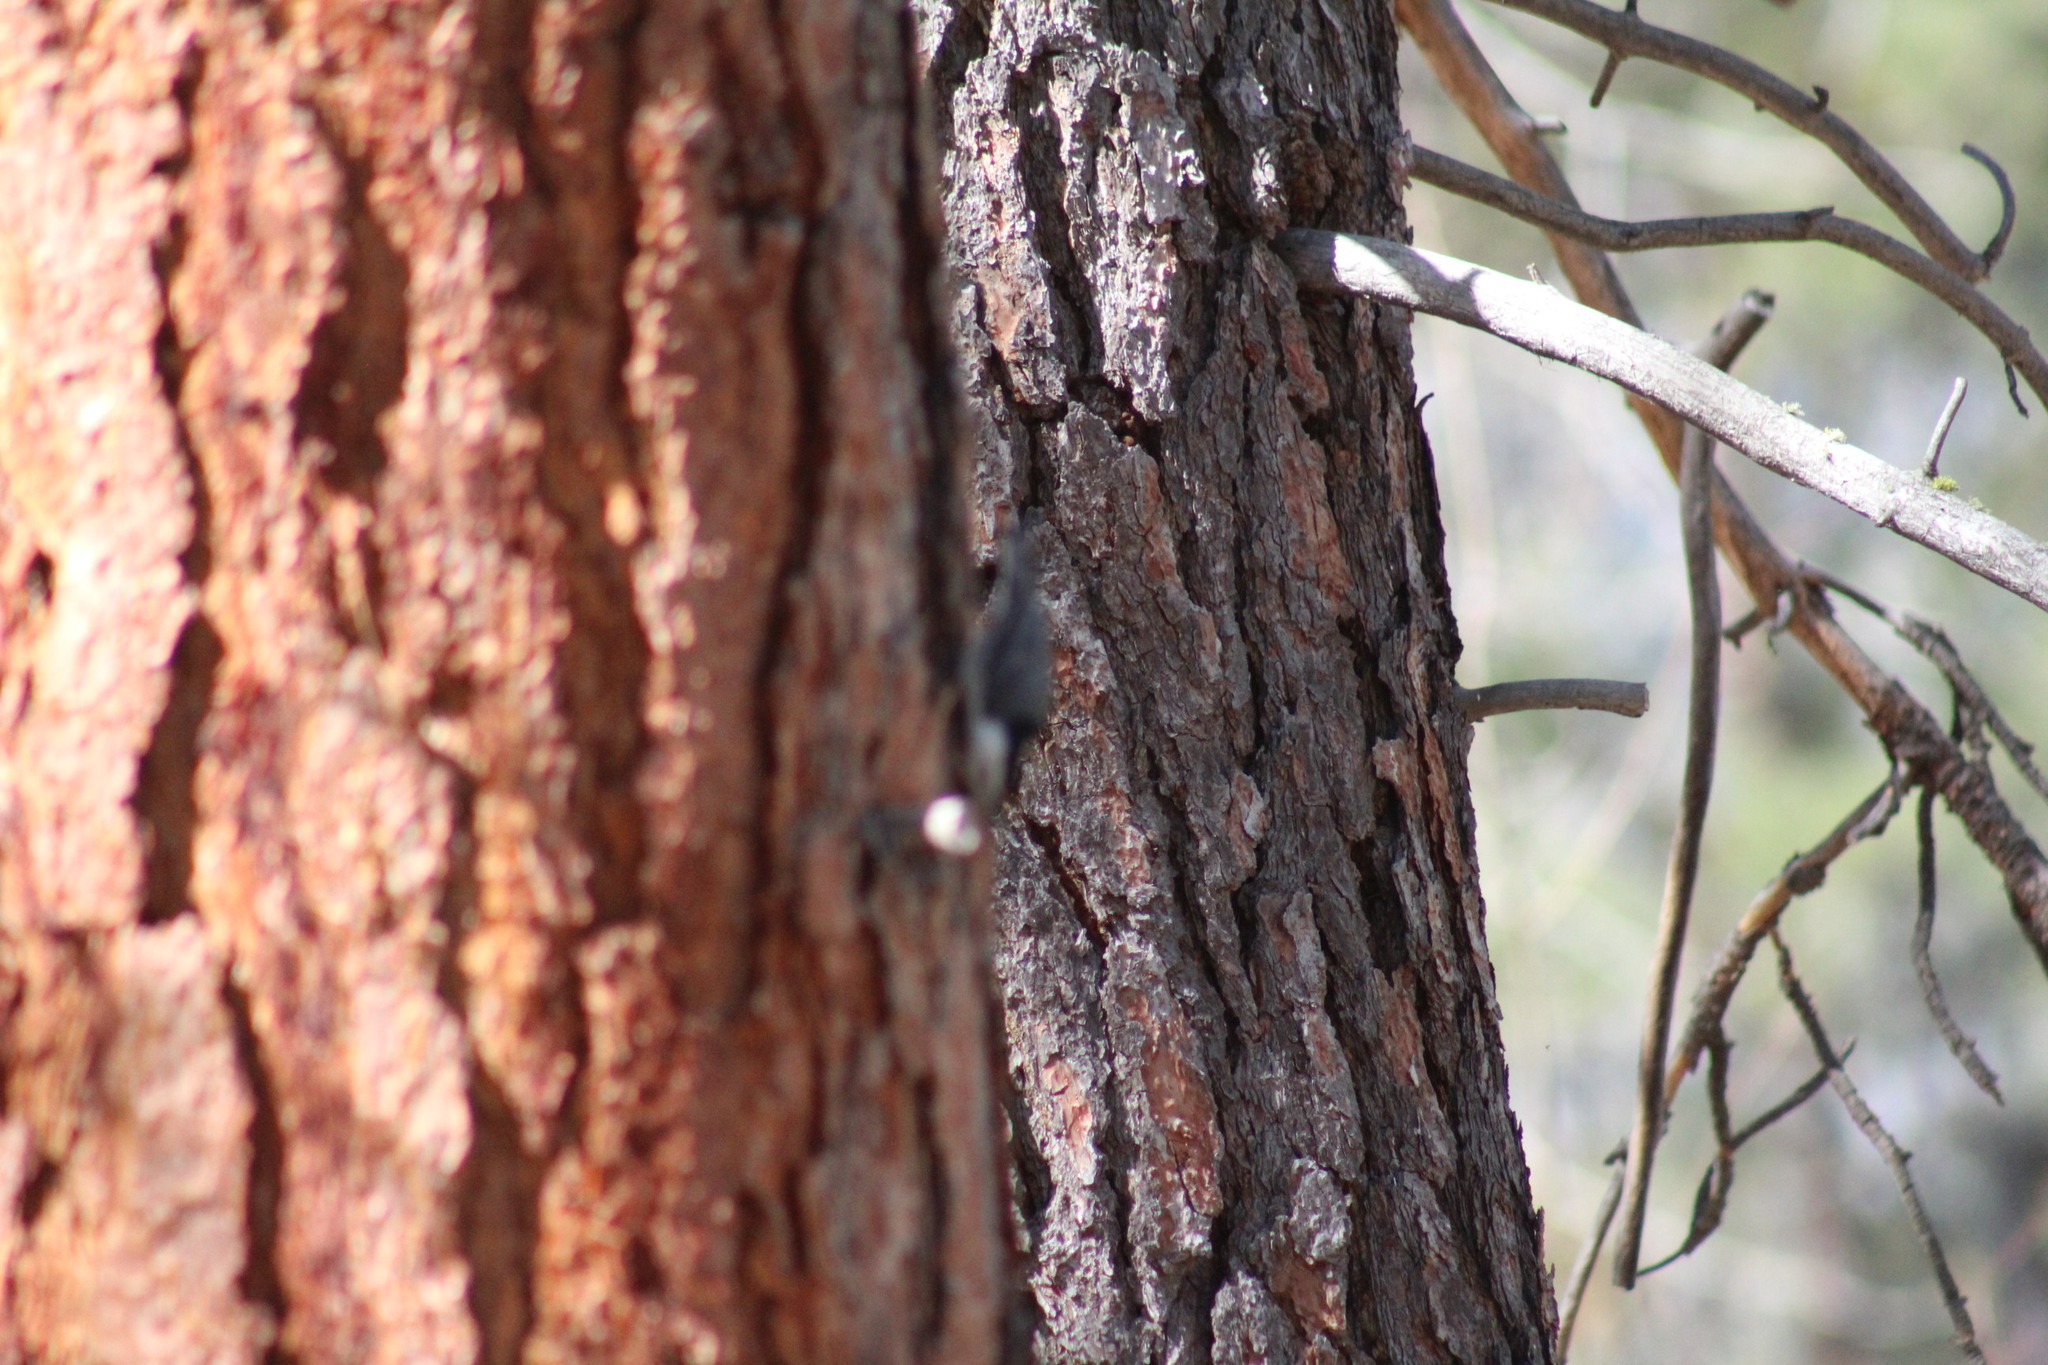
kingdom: Animalia
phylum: Chordata
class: Aves
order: Passeriformes
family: Sittidae
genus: Sitta
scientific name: Sitta carolinensis
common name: White-breasted nuthatch
